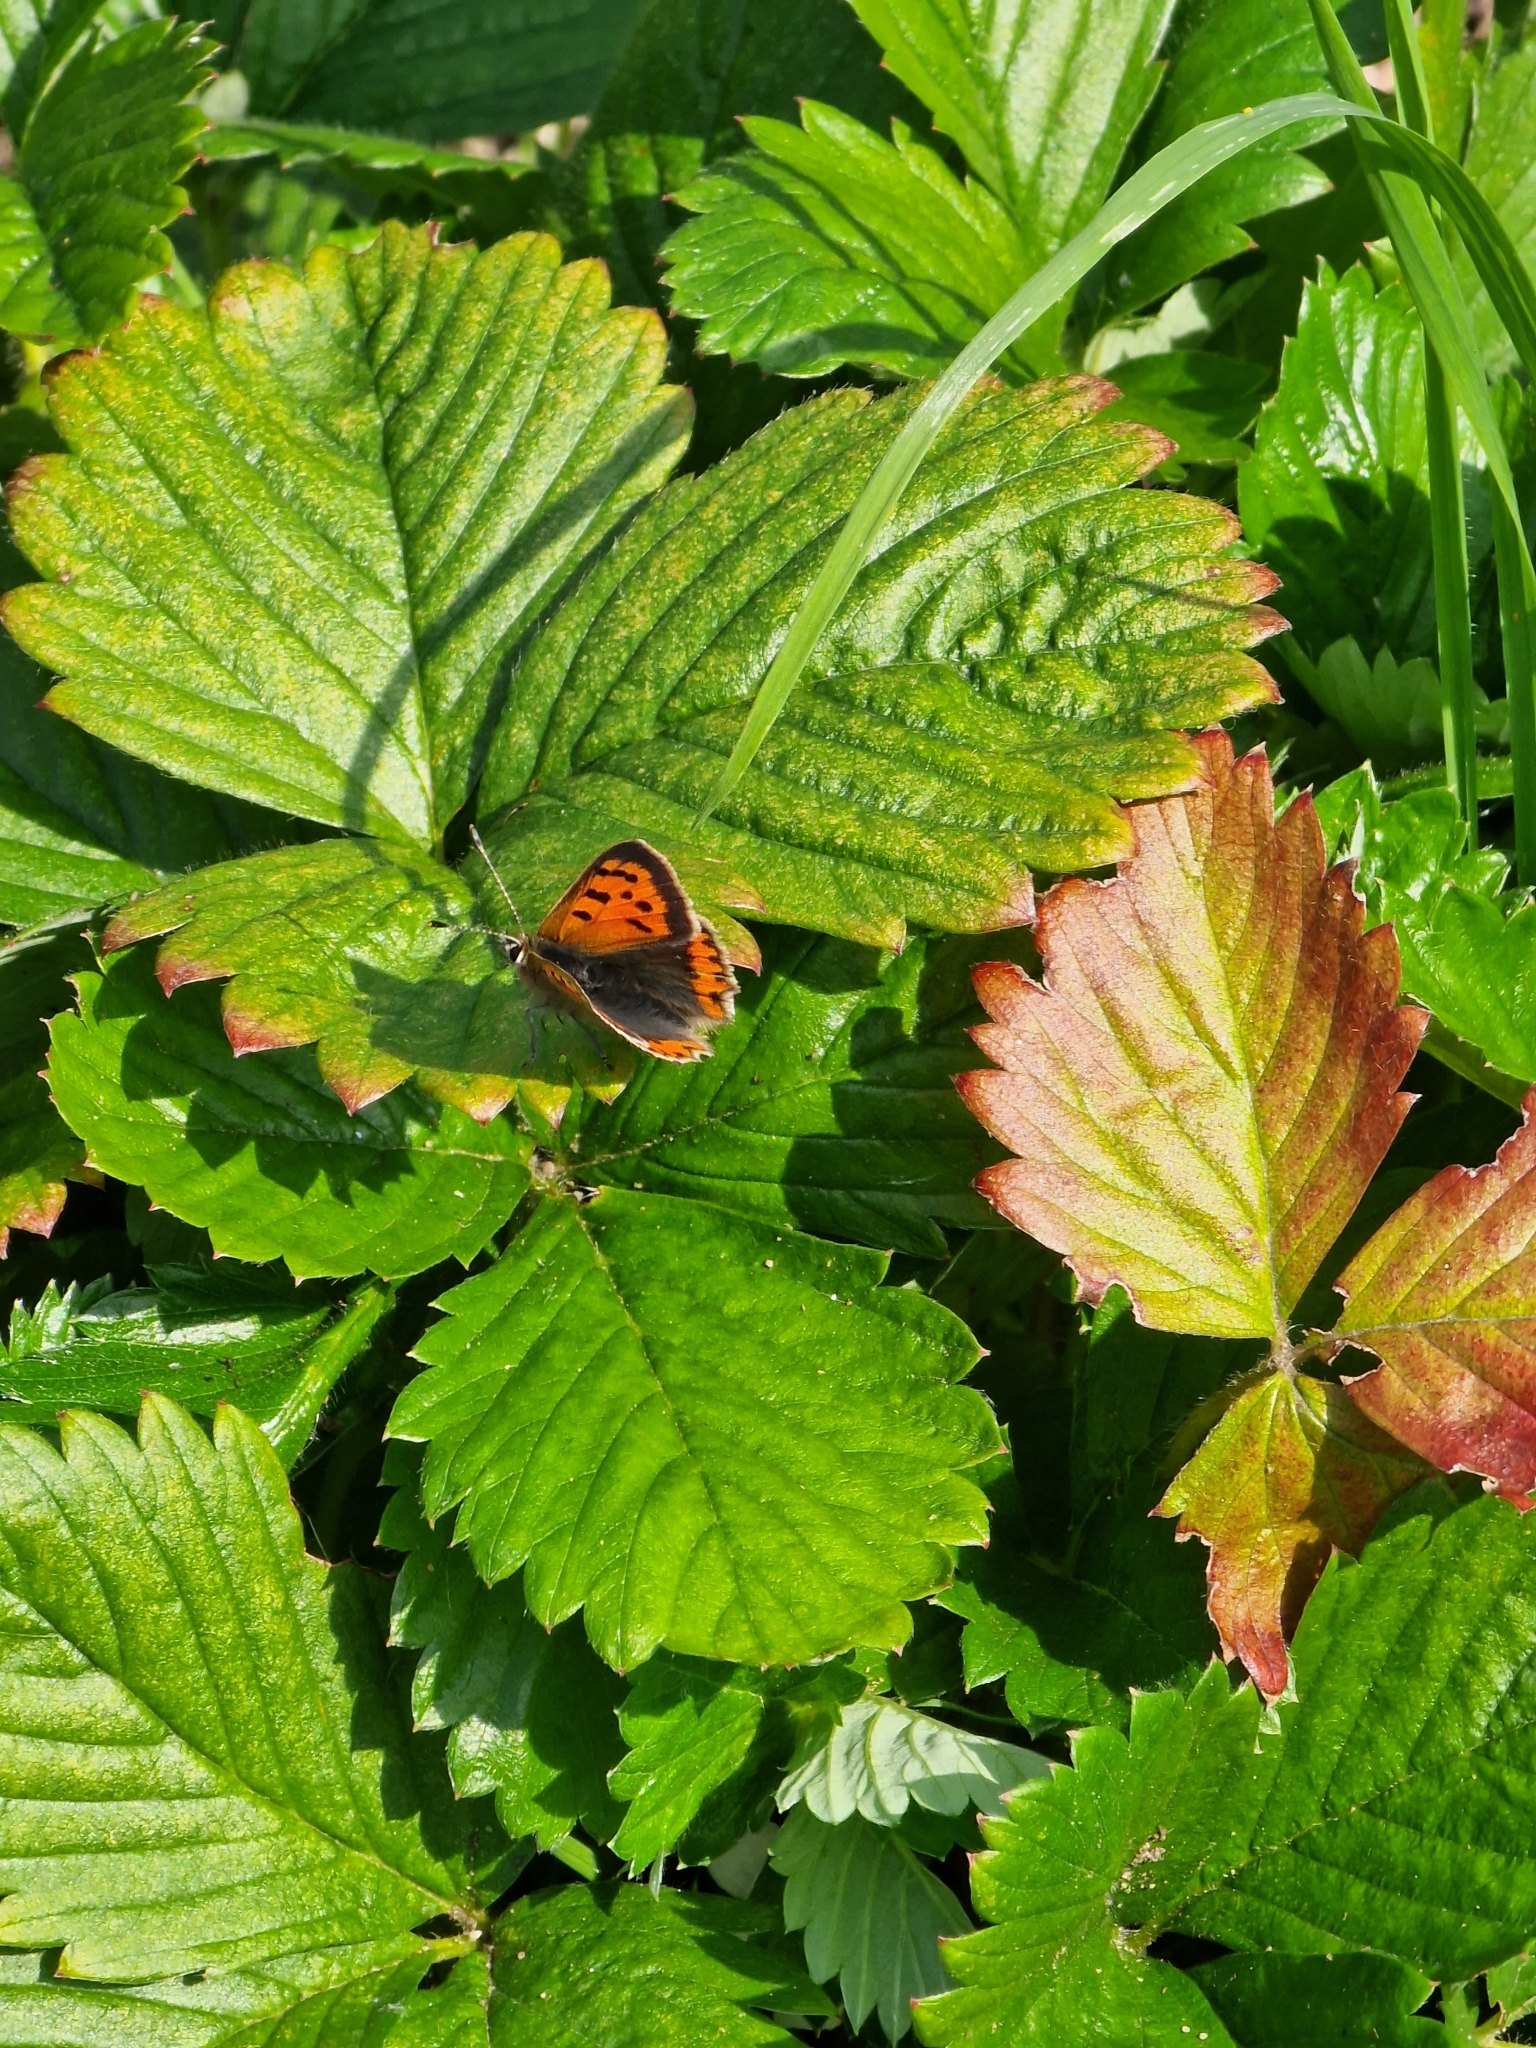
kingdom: Animalia
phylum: Arthropoda
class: Insecta
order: Lepidoptera
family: Lycaenidae
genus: Lycaena
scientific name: Lycaena phlaeas
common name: Small copper
